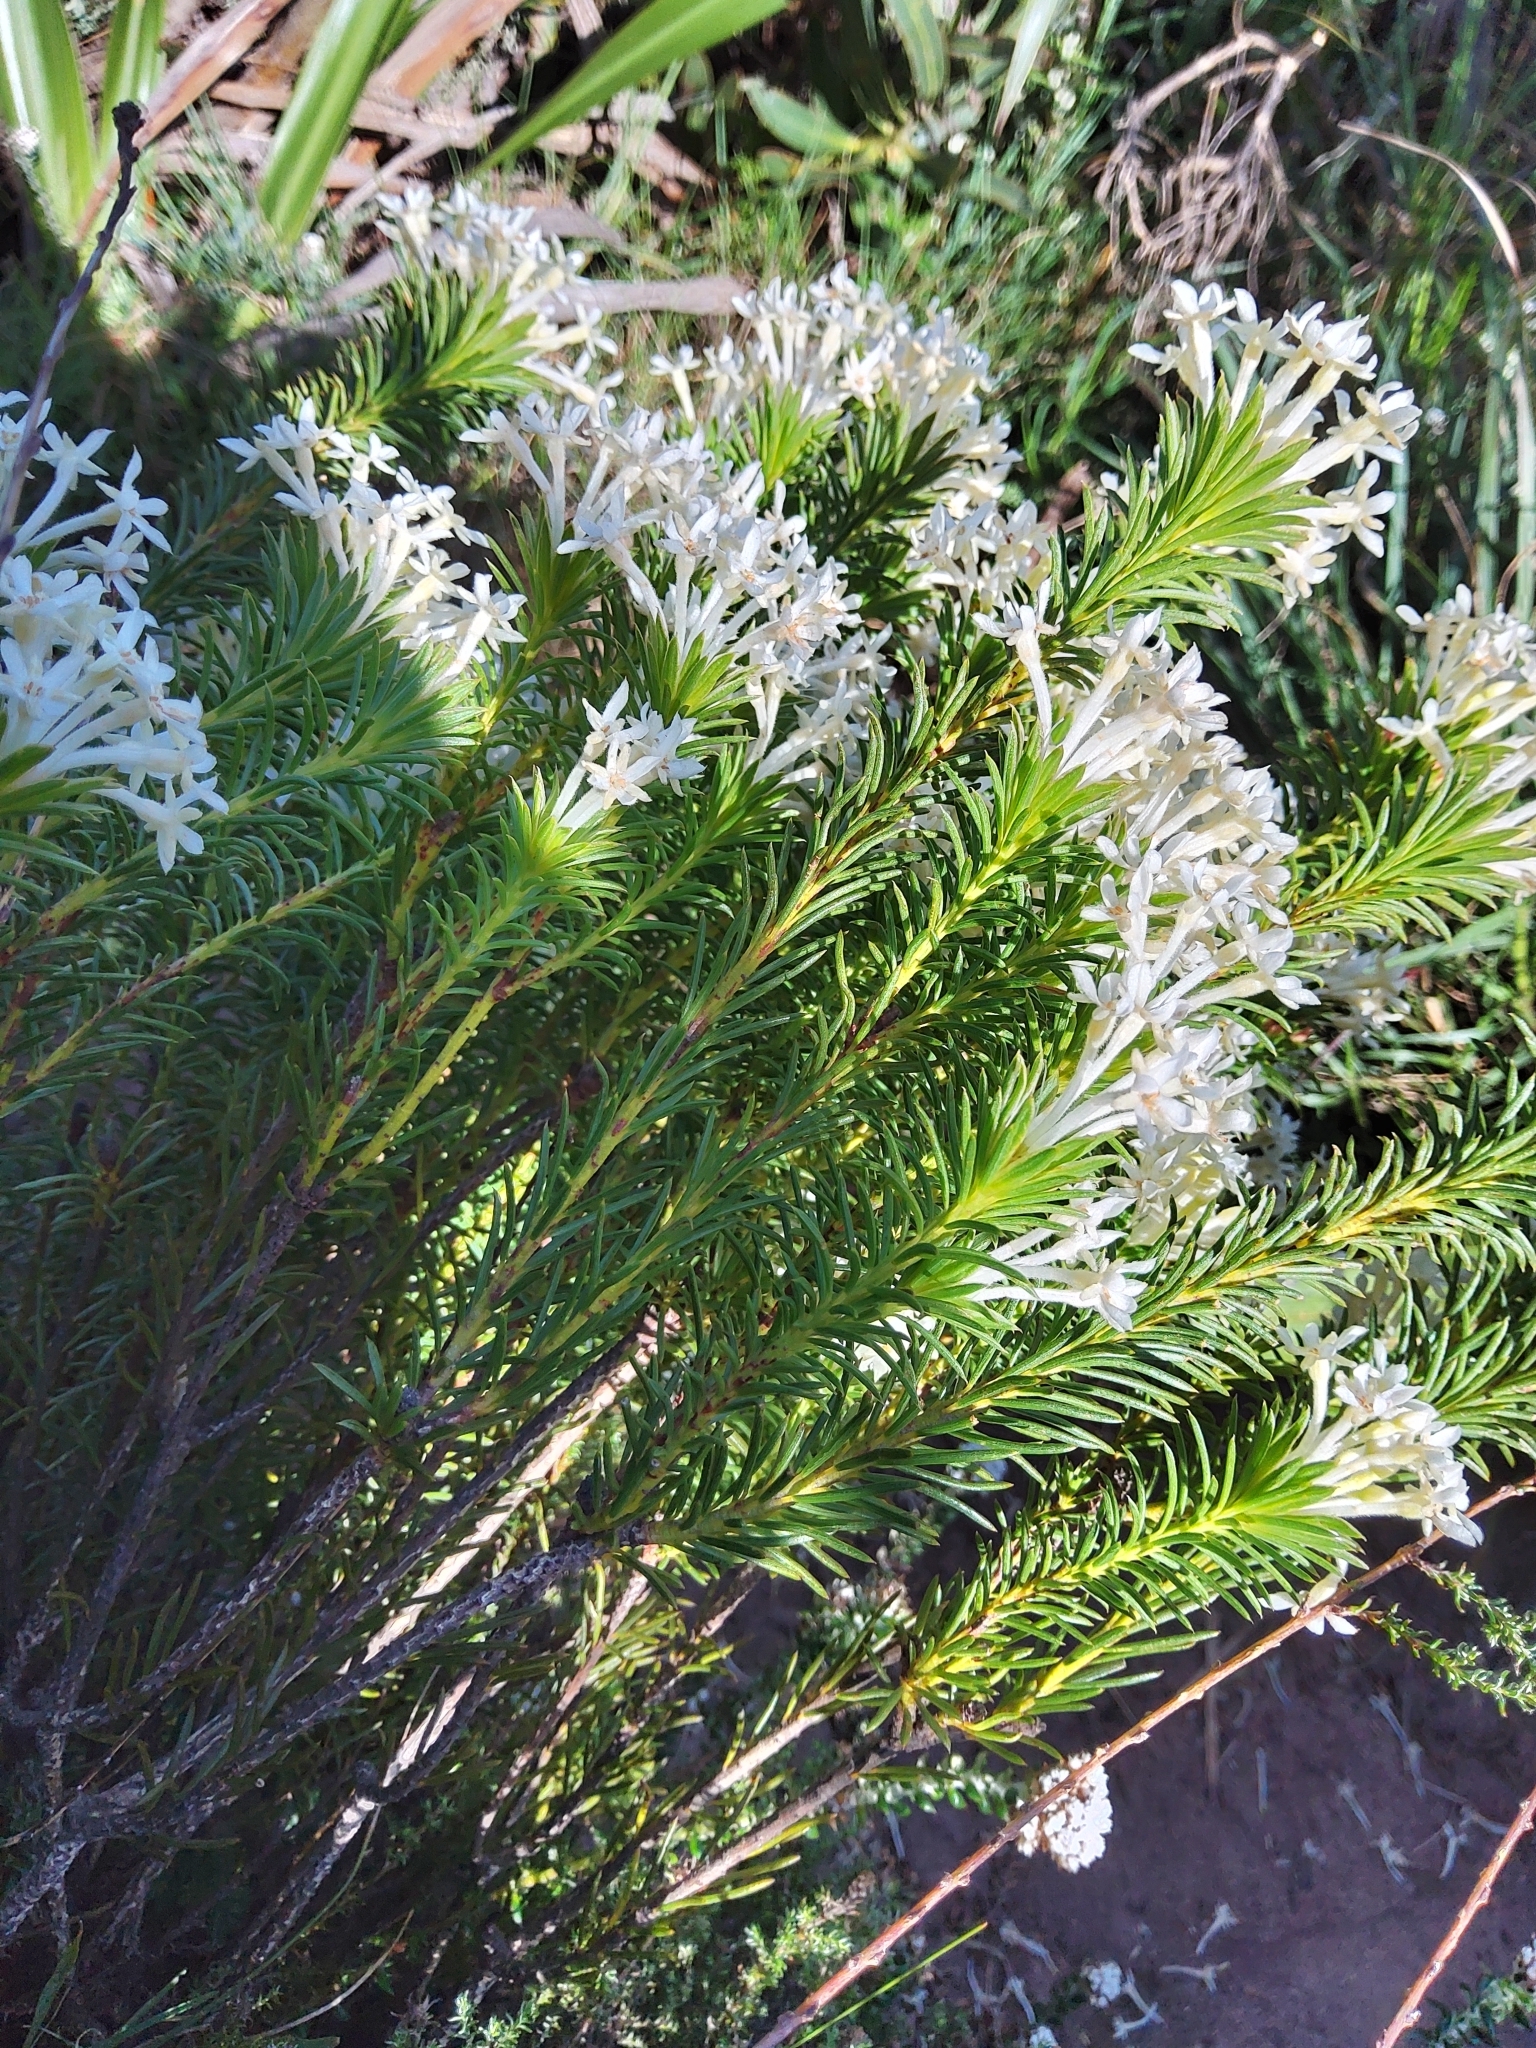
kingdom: Plantae
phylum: Tracheophyta
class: Magnoliopsida
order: Malvales
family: Thymelaeaceae
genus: Gnidia
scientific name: Gnidia pinifolia
